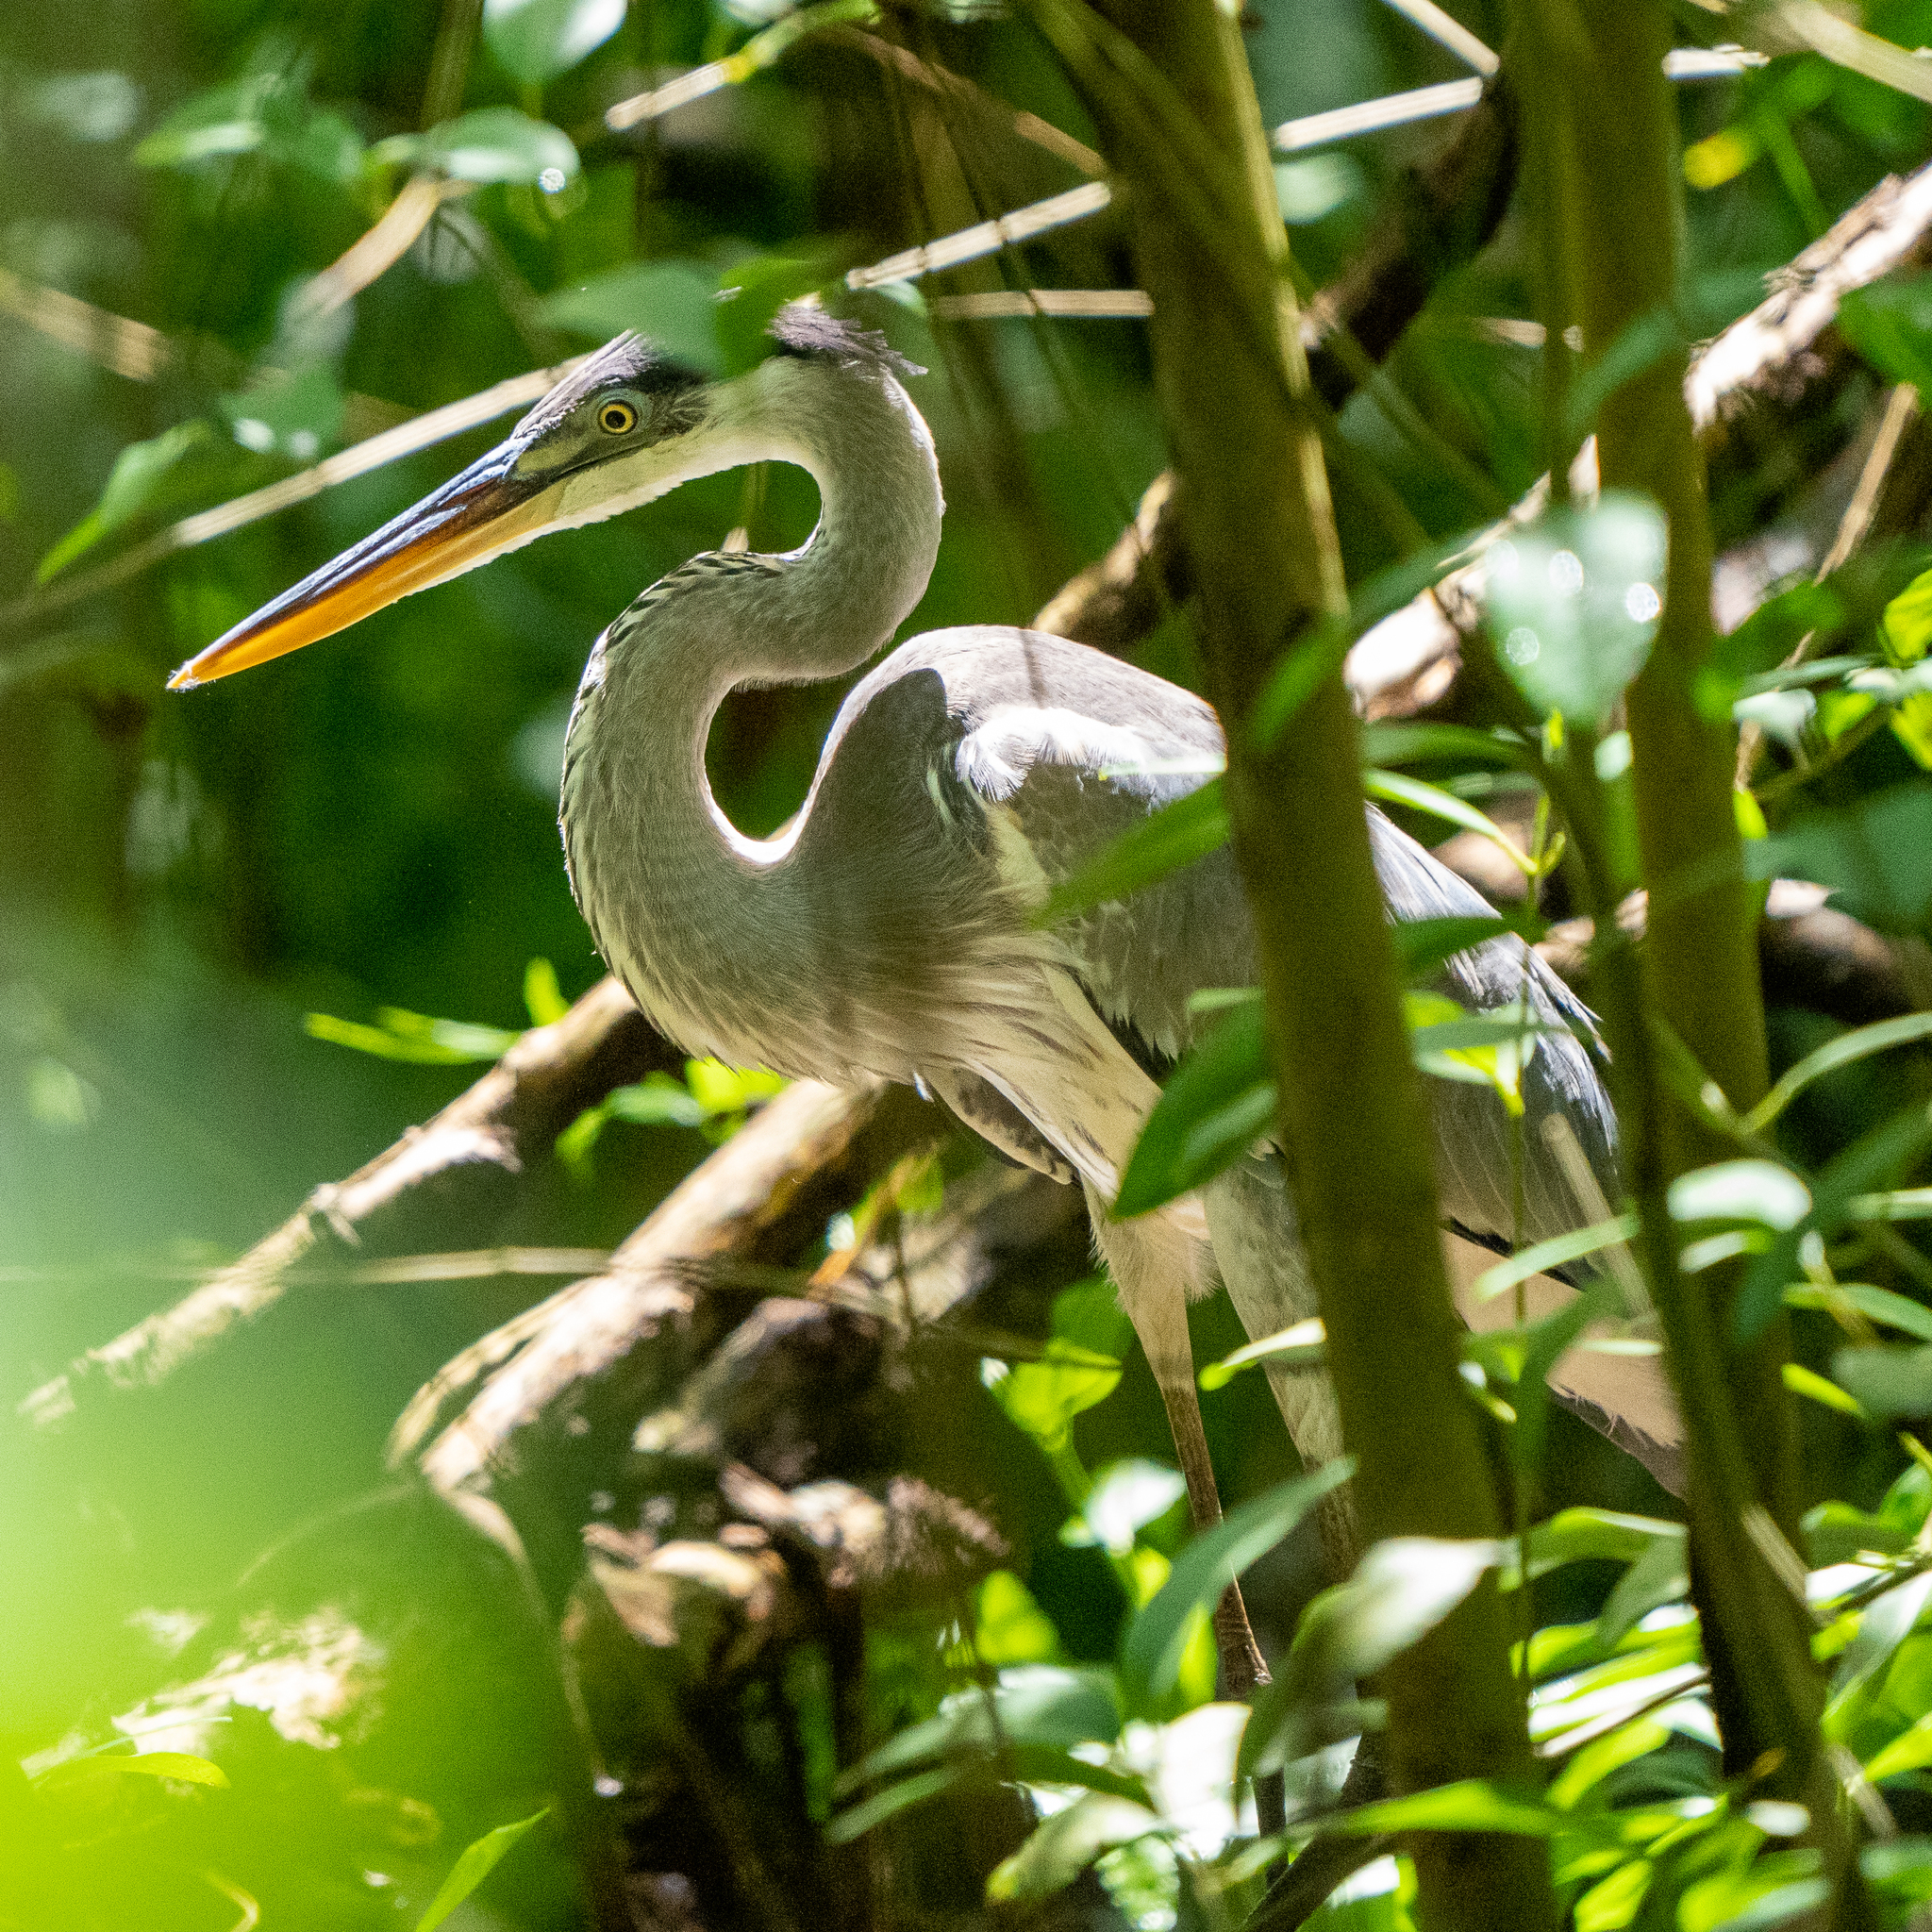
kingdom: Animalia
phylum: Chordata
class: Aves
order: Pelecaniformes
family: Ardeidae
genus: Ardea
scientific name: Ardea cocoi
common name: Cocoi heron
